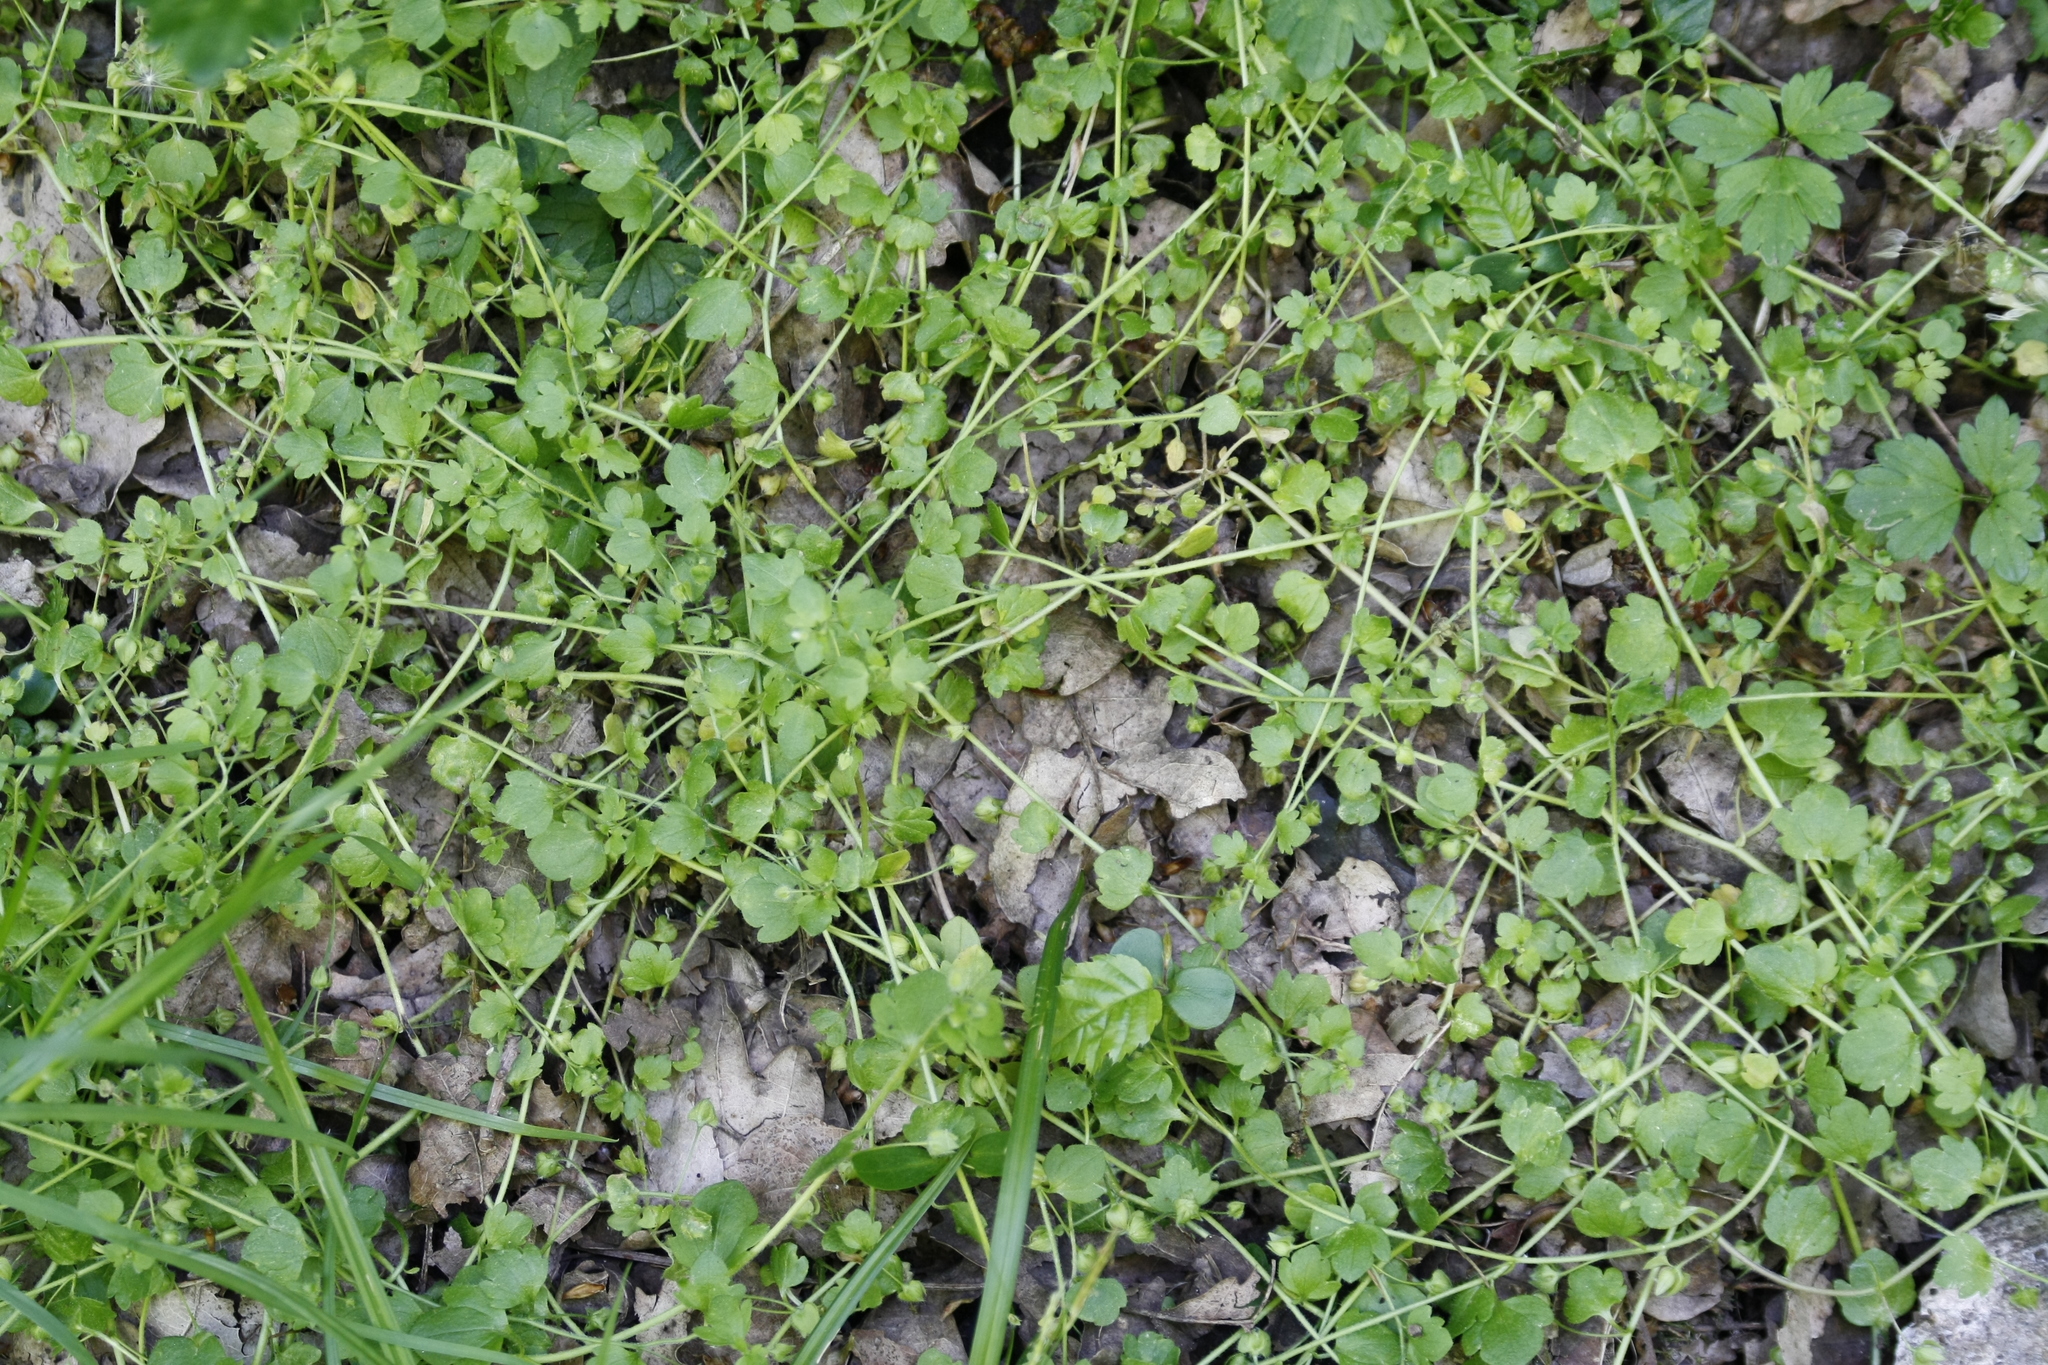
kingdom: Plantae
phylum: Tracheophyta
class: Magnoliopsida
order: Lamiales
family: Plantaginaceae
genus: Veronica
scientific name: Veronica sublobata
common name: False ivy-leaved speedwell
